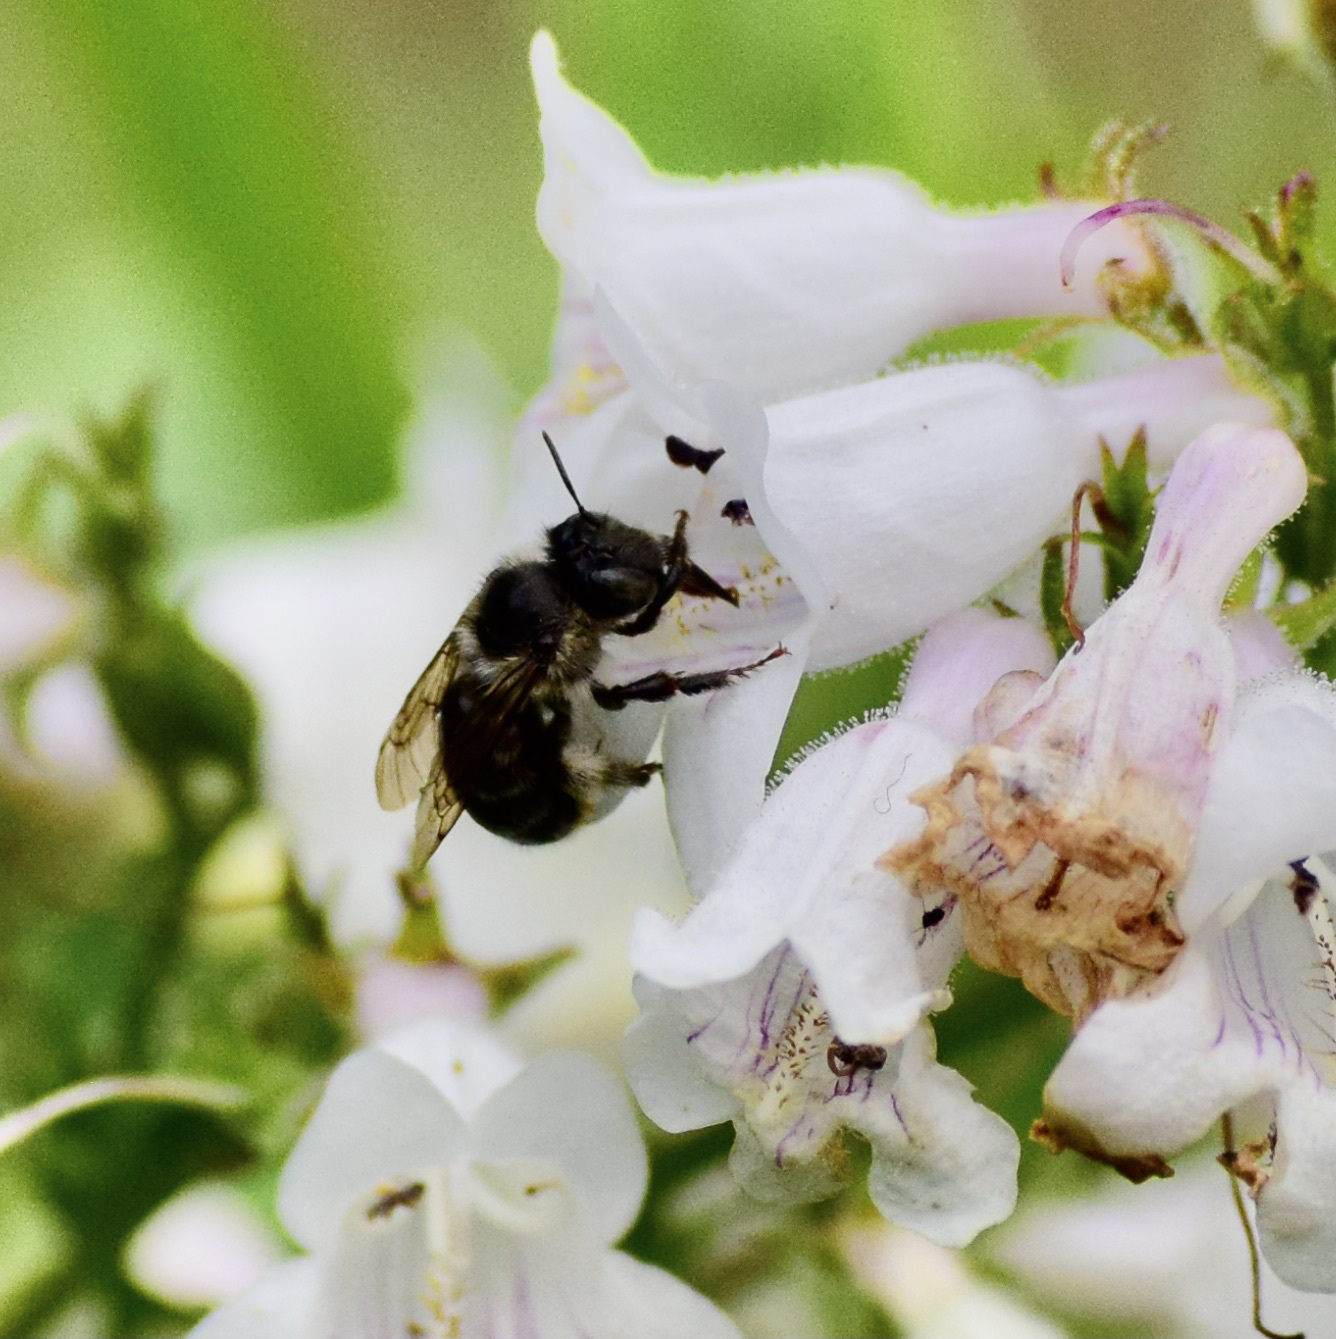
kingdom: Animalia
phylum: Arthropoda
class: Insecta
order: Hymenoptera
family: Apidae
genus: Anthophora
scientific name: Anthophora terminalis
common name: Orange-tipped wood-digger bee
